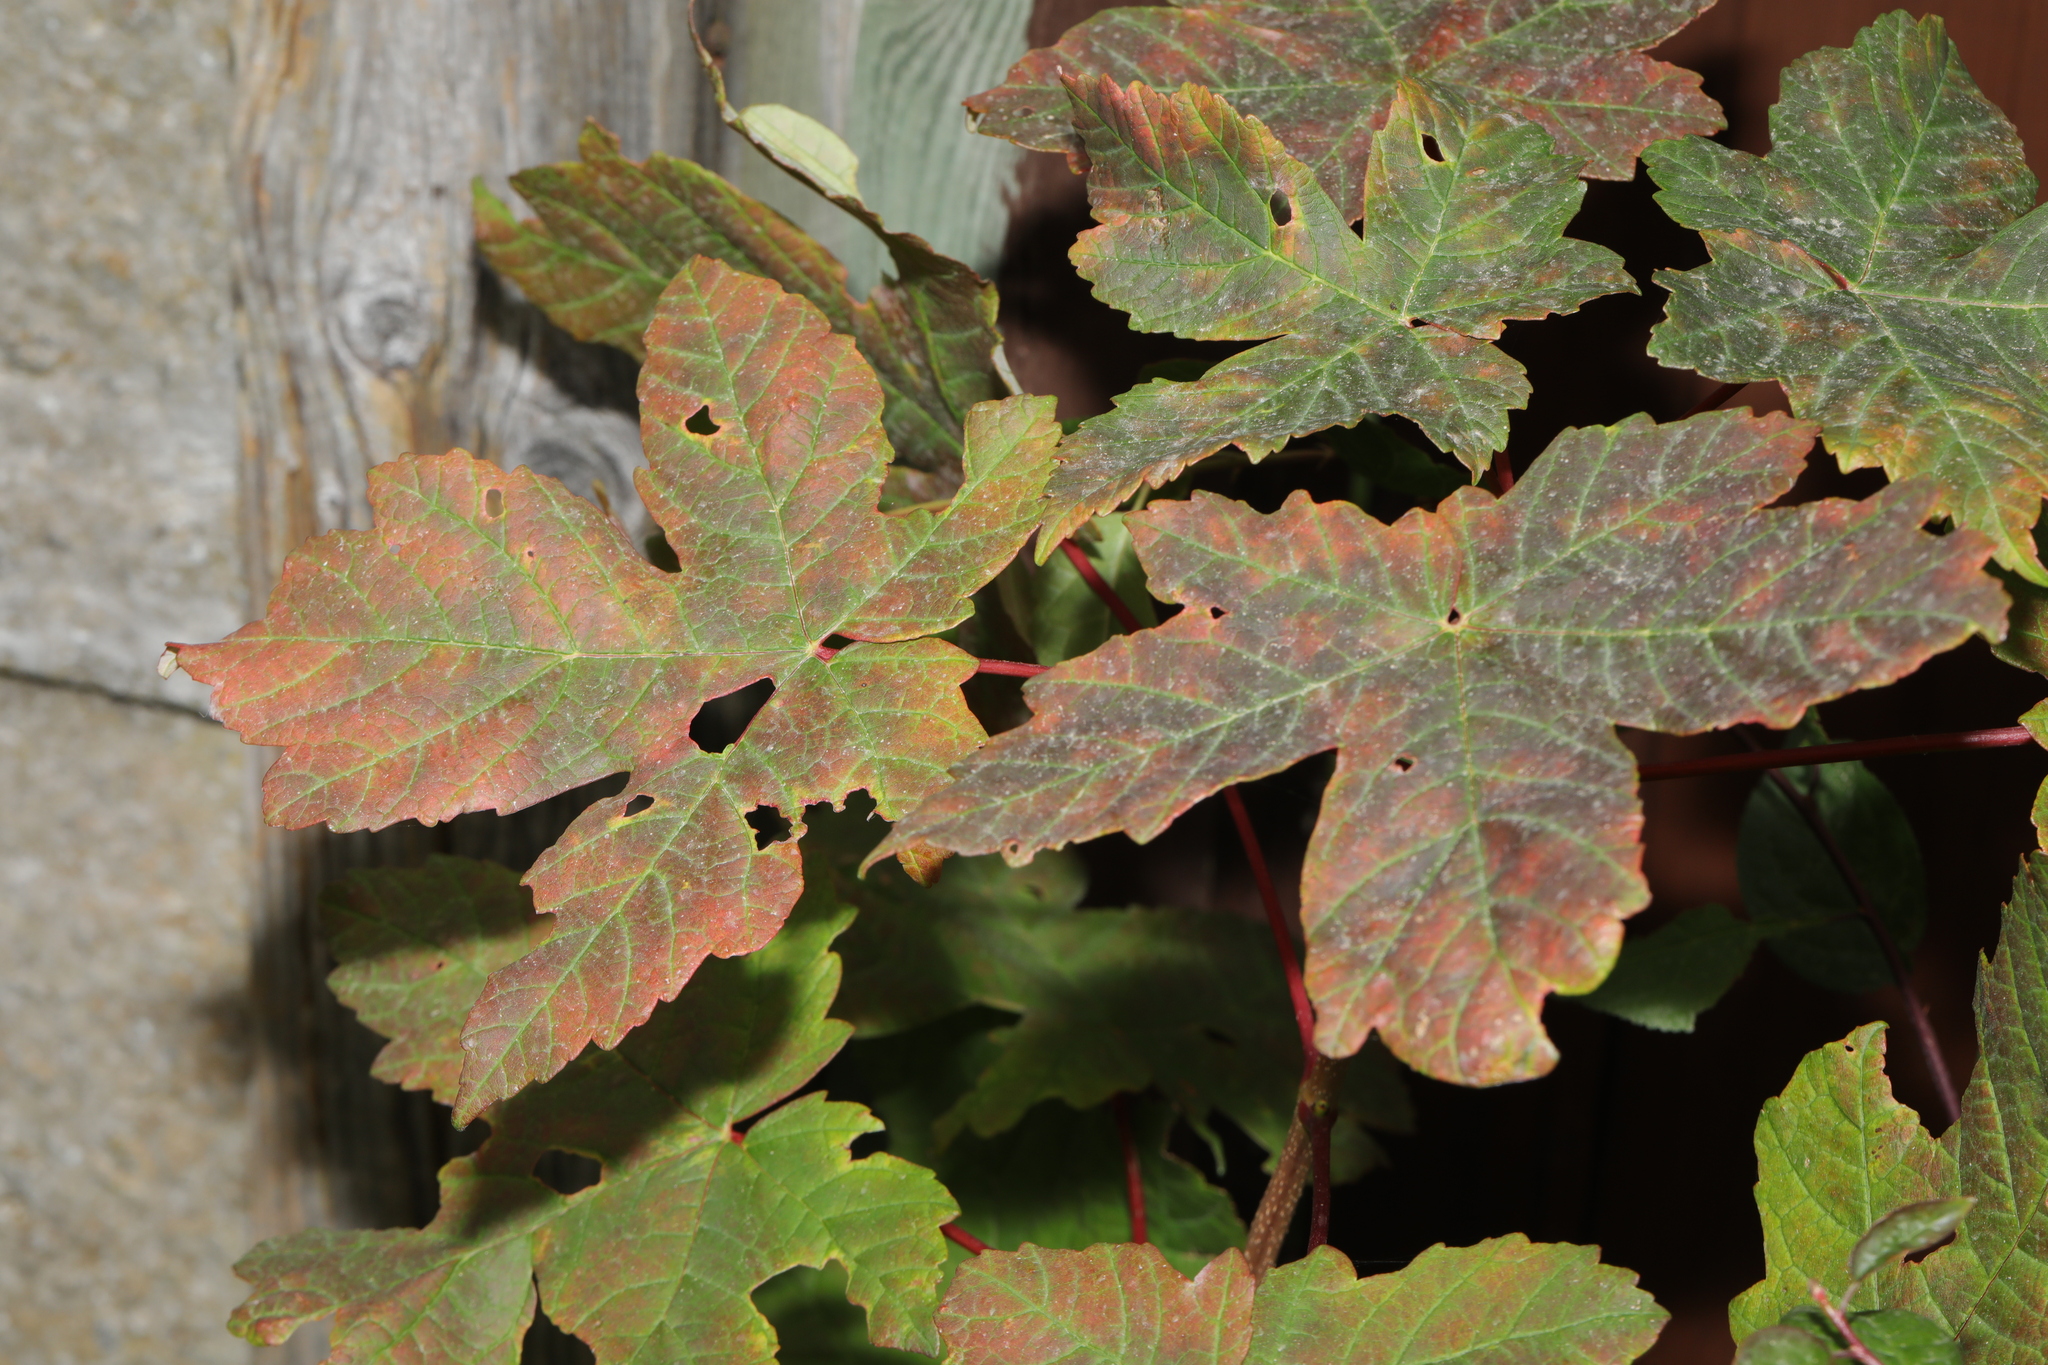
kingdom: Plantae
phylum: Tracheophyta
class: Magnoliopsida
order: Sapindales
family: Sapindaceae
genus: Acer
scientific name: Acer pseudoplatanus
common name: Sycamore
